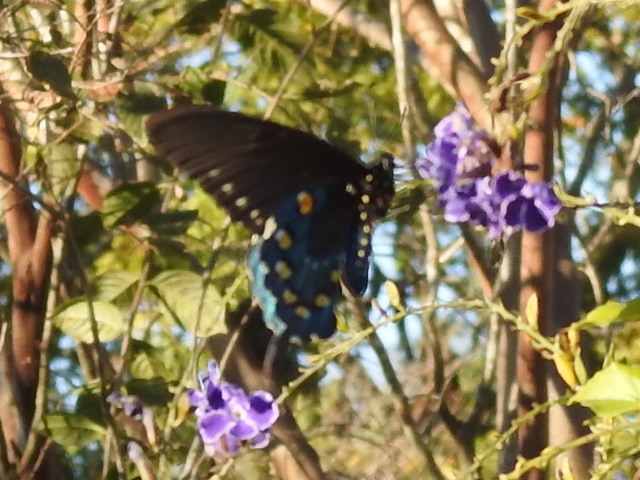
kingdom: Animalia
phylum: Arthropoda
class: Insecta
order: Lepidoptera
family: Papilionidae
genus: Battus
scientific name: Battus philenor
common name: Pipevine swallowtail
